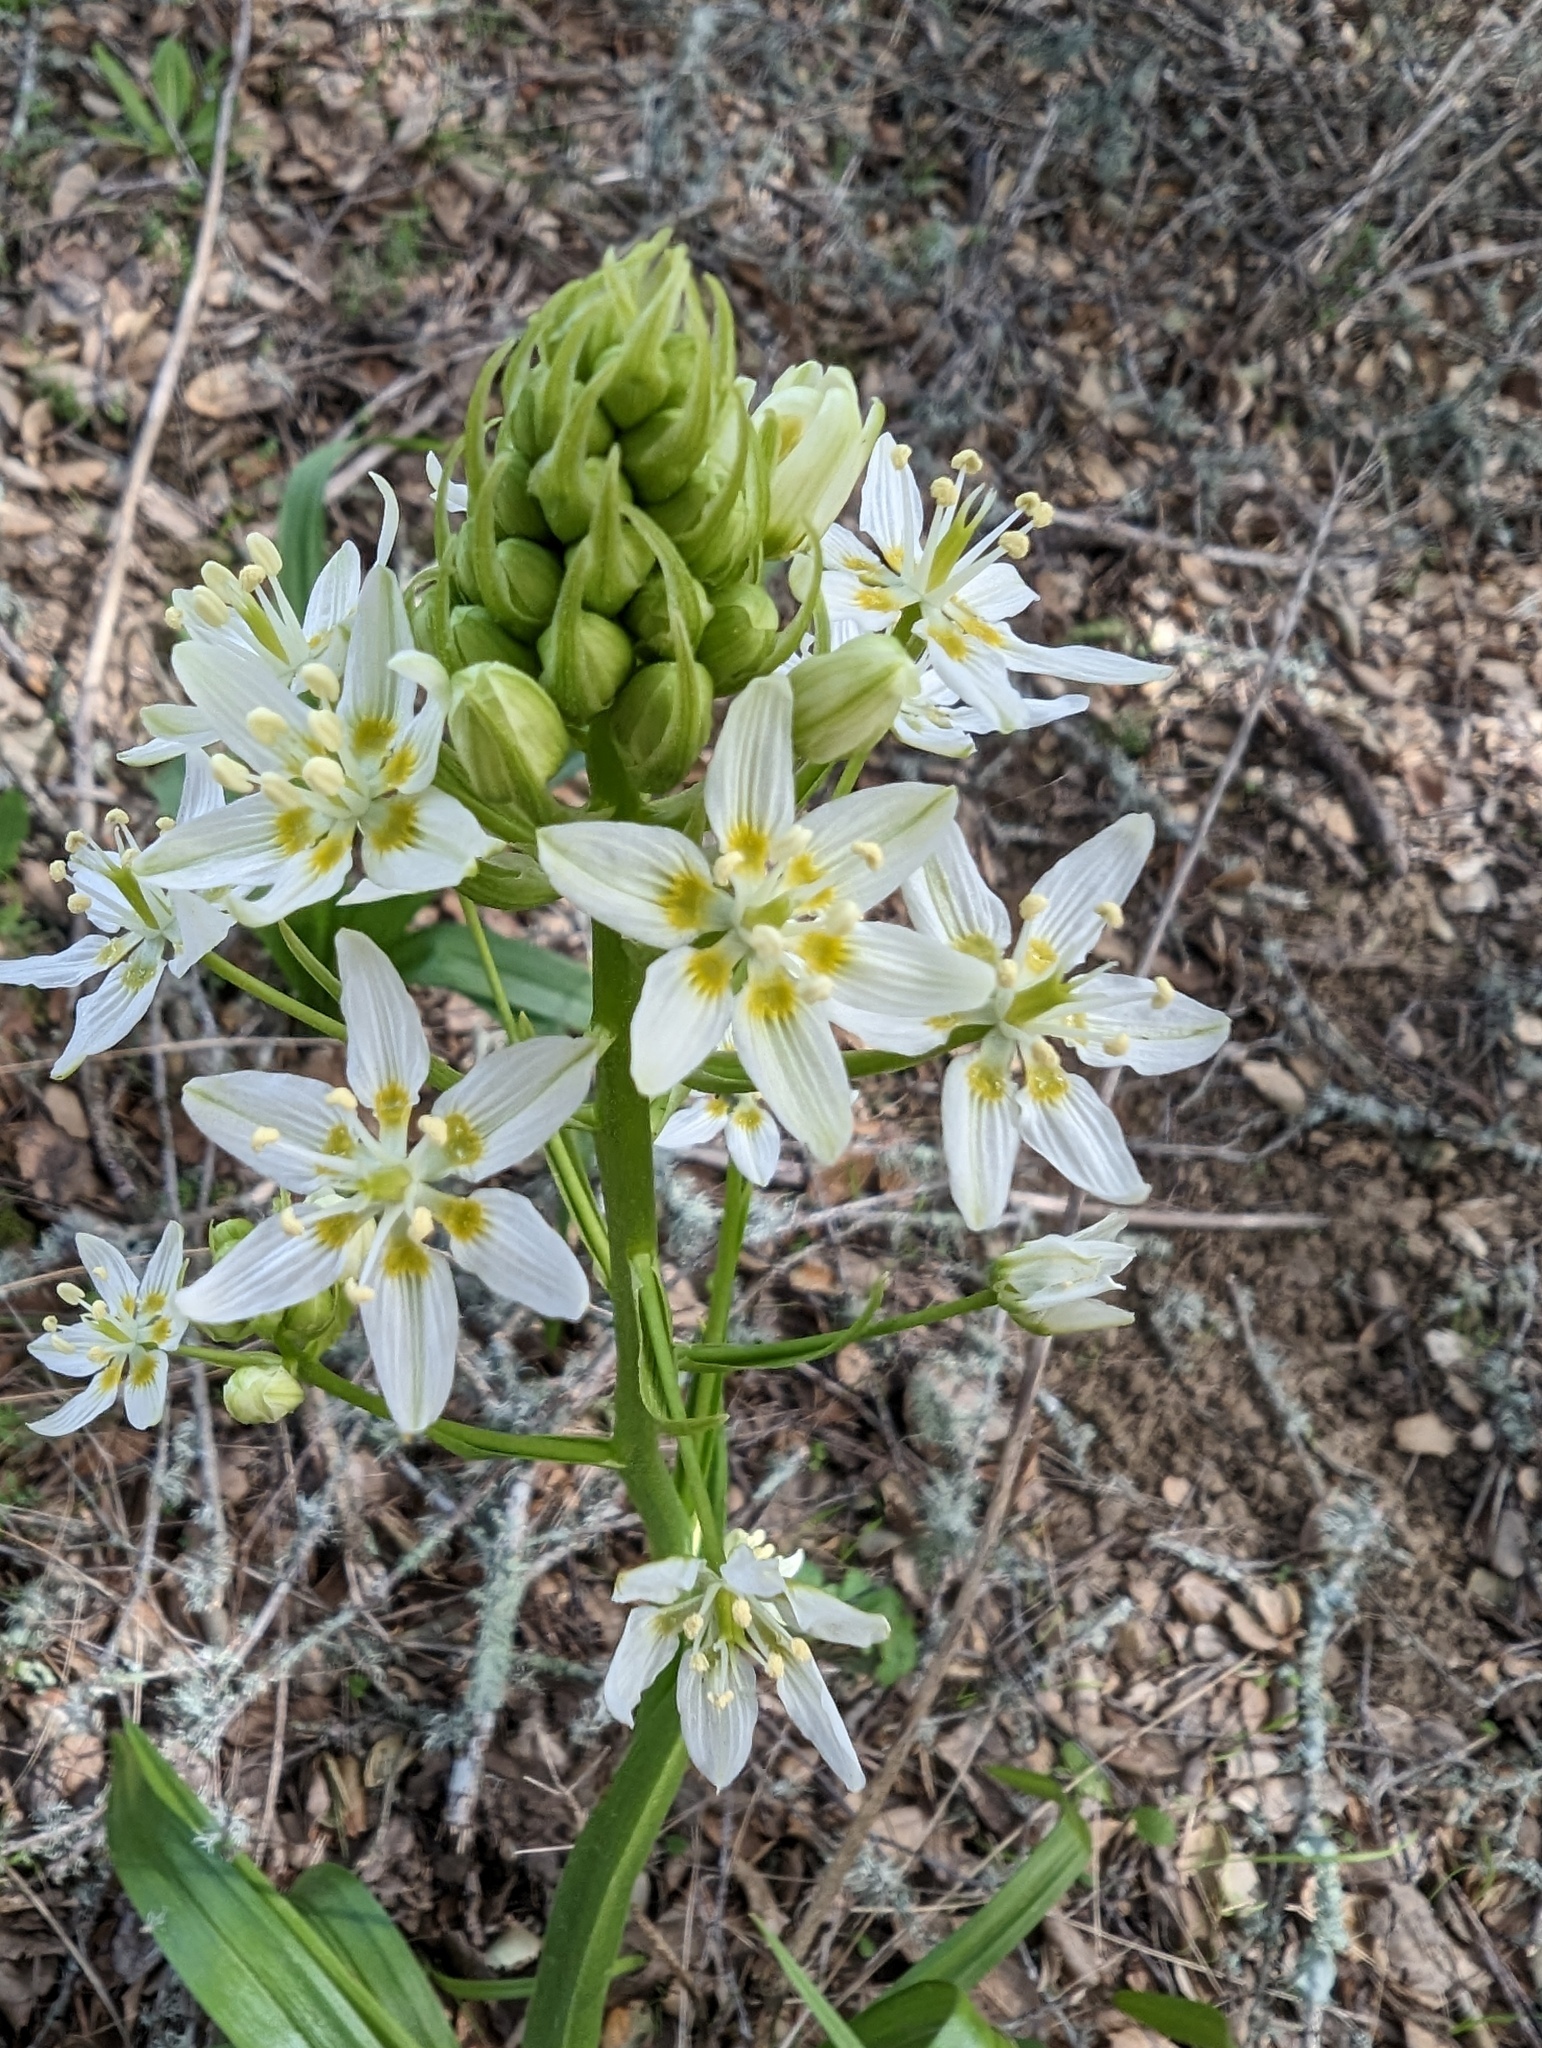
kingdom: Plantae
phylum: Tracheophyta
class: Liliopsida
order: Liliales
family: Melanthiaceae
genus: Toxicoscordion
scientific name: Toxicoscordion fremontii
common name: Fremont's death camas
